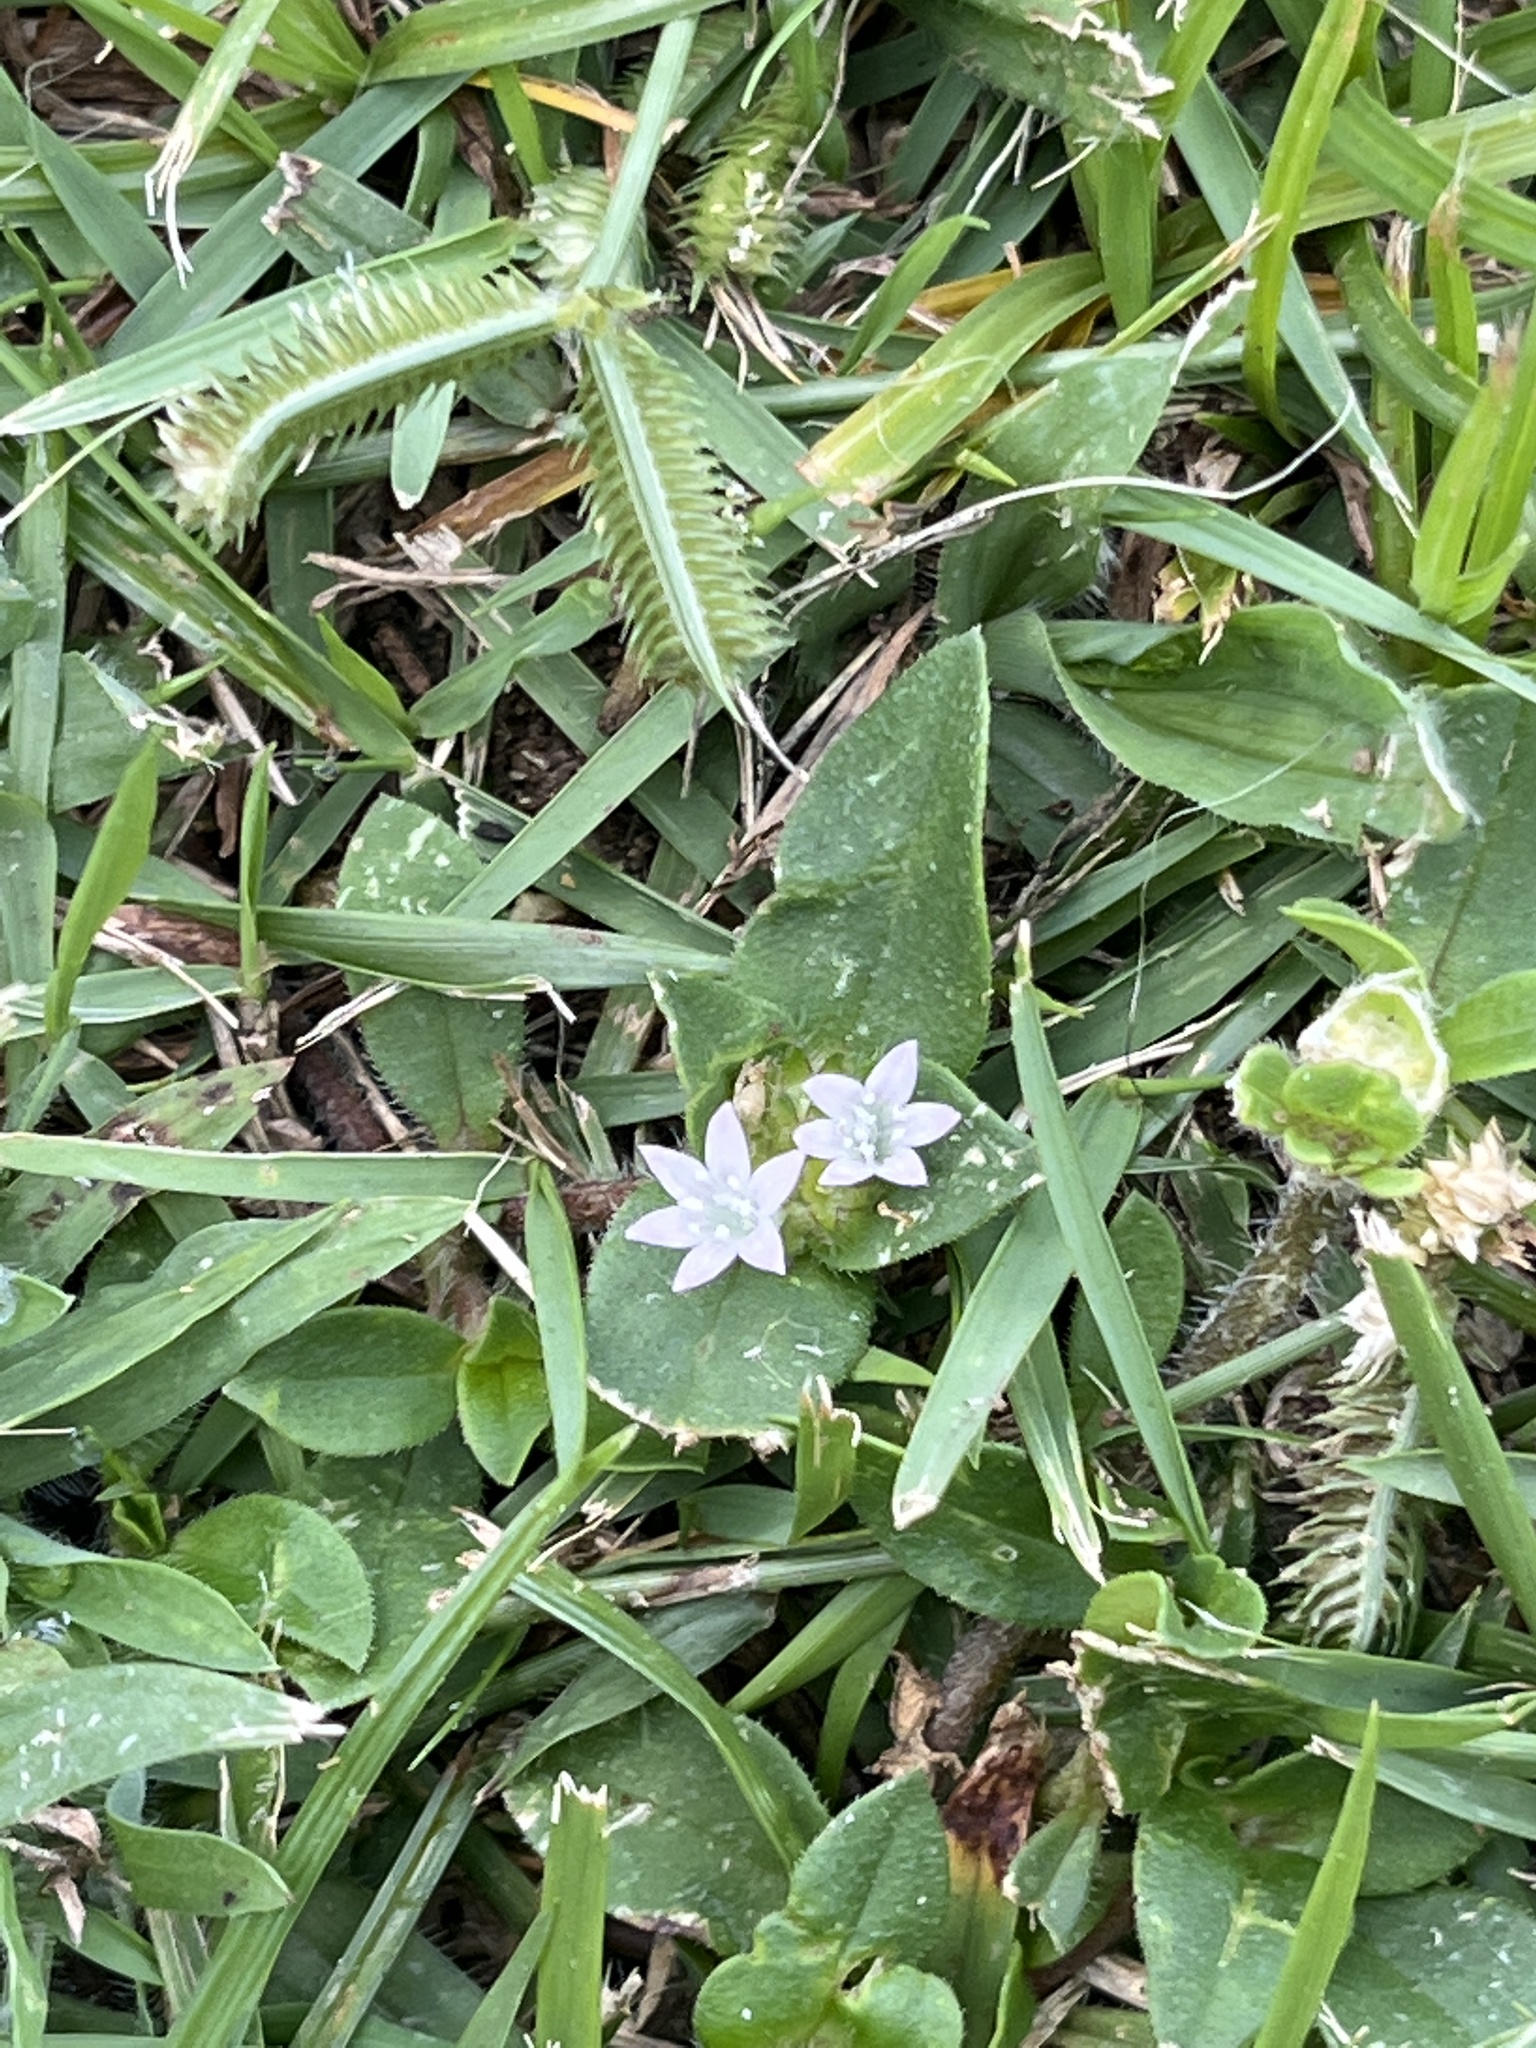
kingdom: Plantae
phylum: Tracheophyta
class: Magnoliopsida
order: Gentianales
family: Rubiaceae
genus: Richardia
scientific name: Richardia scabra
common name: Rough mexican clover
